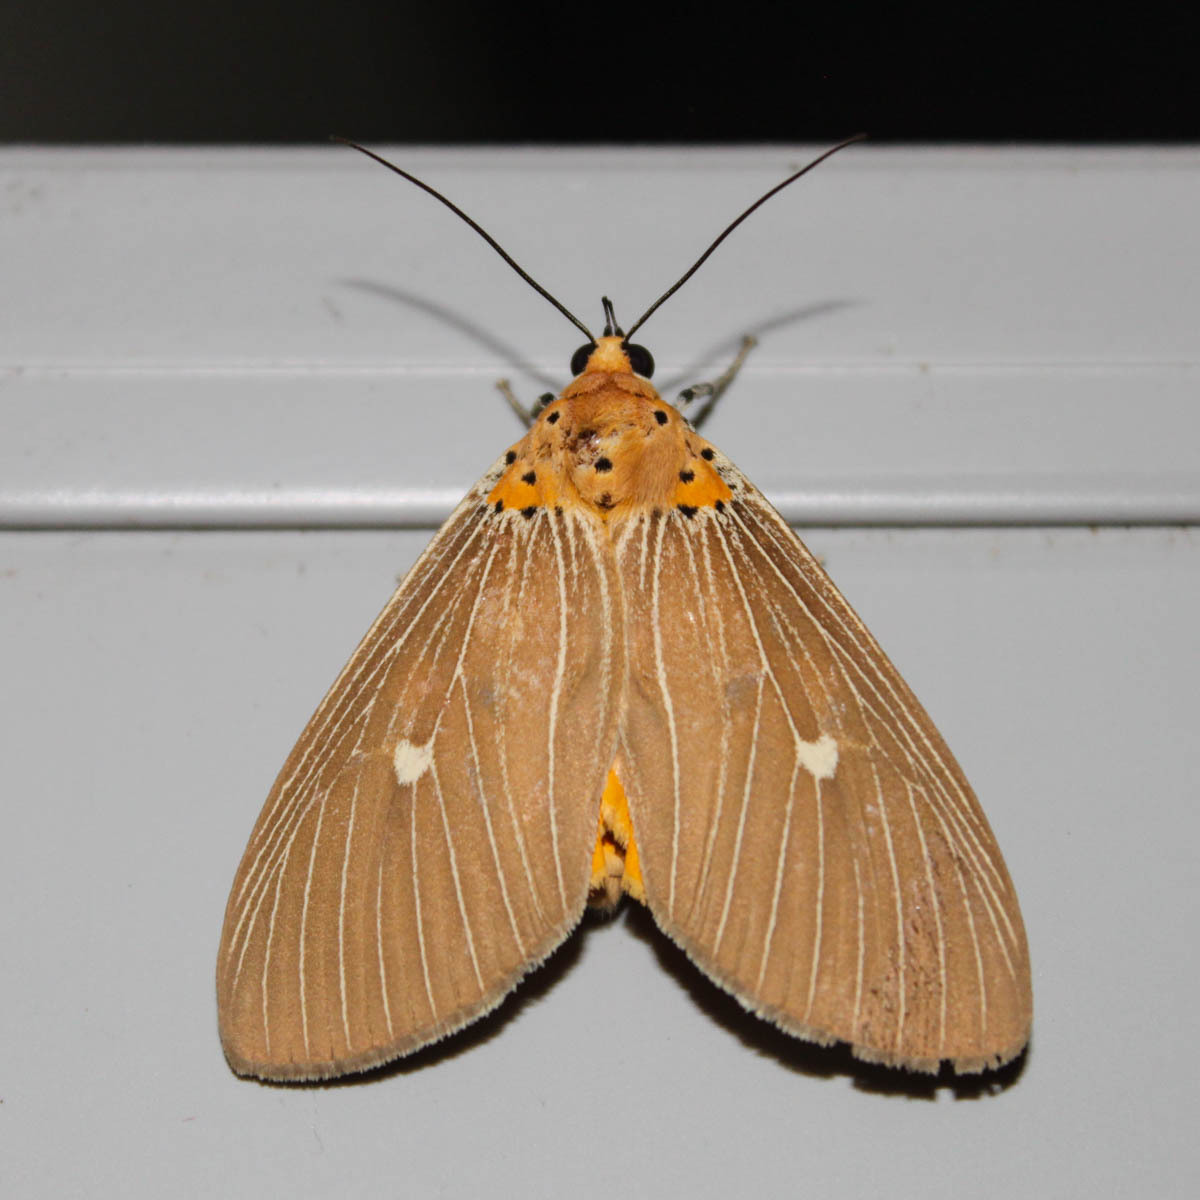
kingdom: Animalia
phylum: Arthropoda
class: Insecta
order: Lepidoptera
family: Erebidae
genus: Asota
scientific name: Asota caricae
